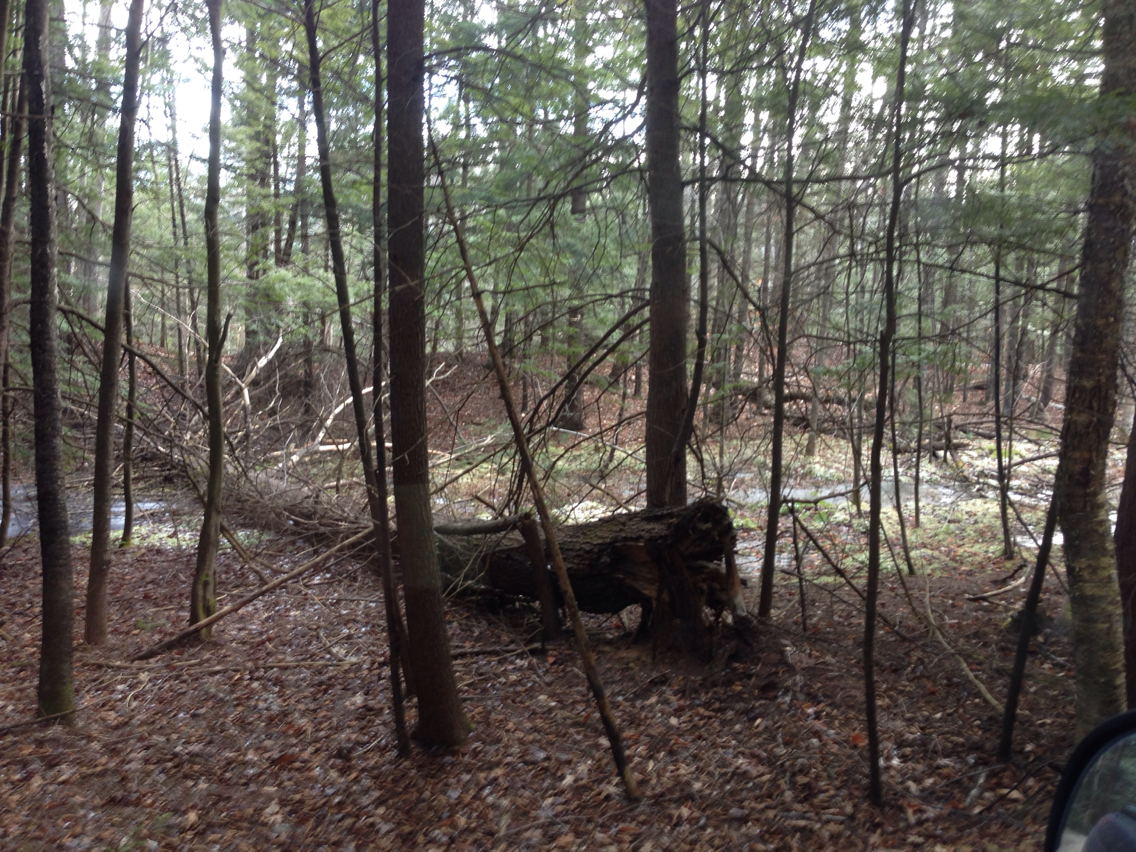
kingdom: Plantae
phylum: Tracheophyta
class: Pinopsida
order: Pinales
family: Pinaceae
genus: Tsuga
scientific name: Tsuga canadensis
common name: Eastern hemlock
